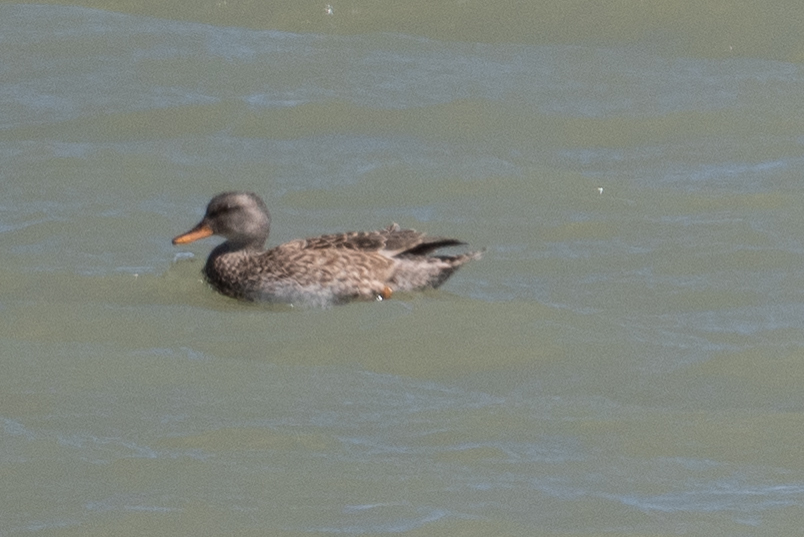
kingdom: Animalia
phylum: Chordata
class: Aves
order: Anseriformes
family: Anatidae
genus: Mareca
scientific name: Mareca strepera
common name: Gadwall
